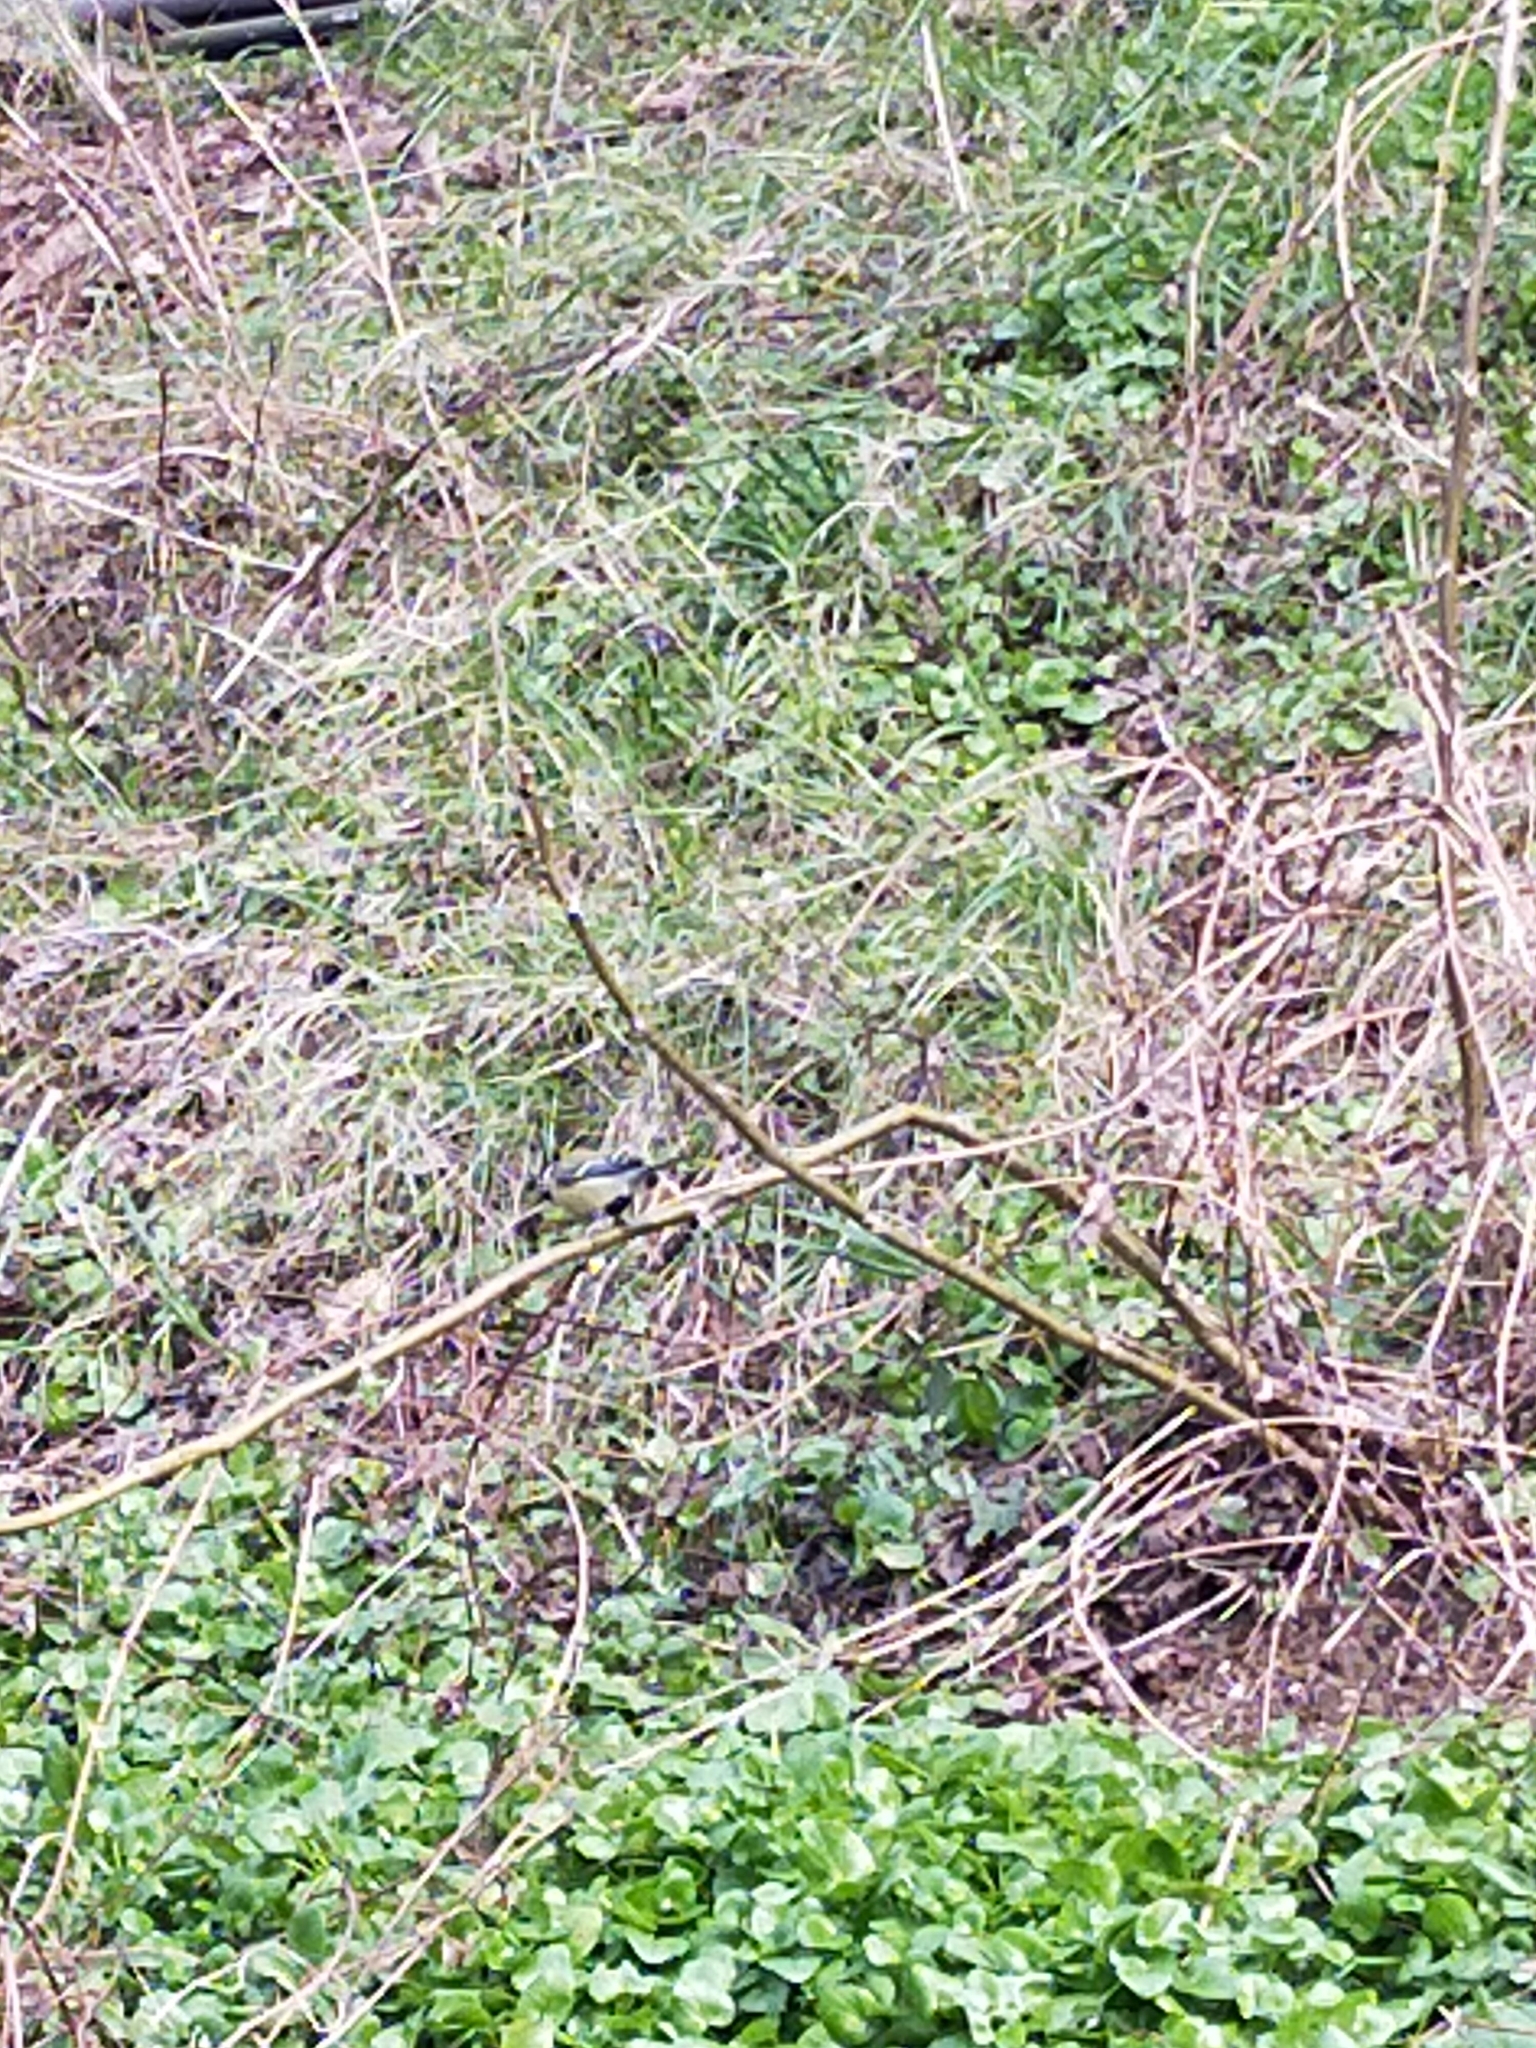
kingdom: Animalia
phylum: Chordata
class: Aves
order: Passeriformes
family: Paridae
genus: Parus
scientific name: Parus major
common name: Great tit
